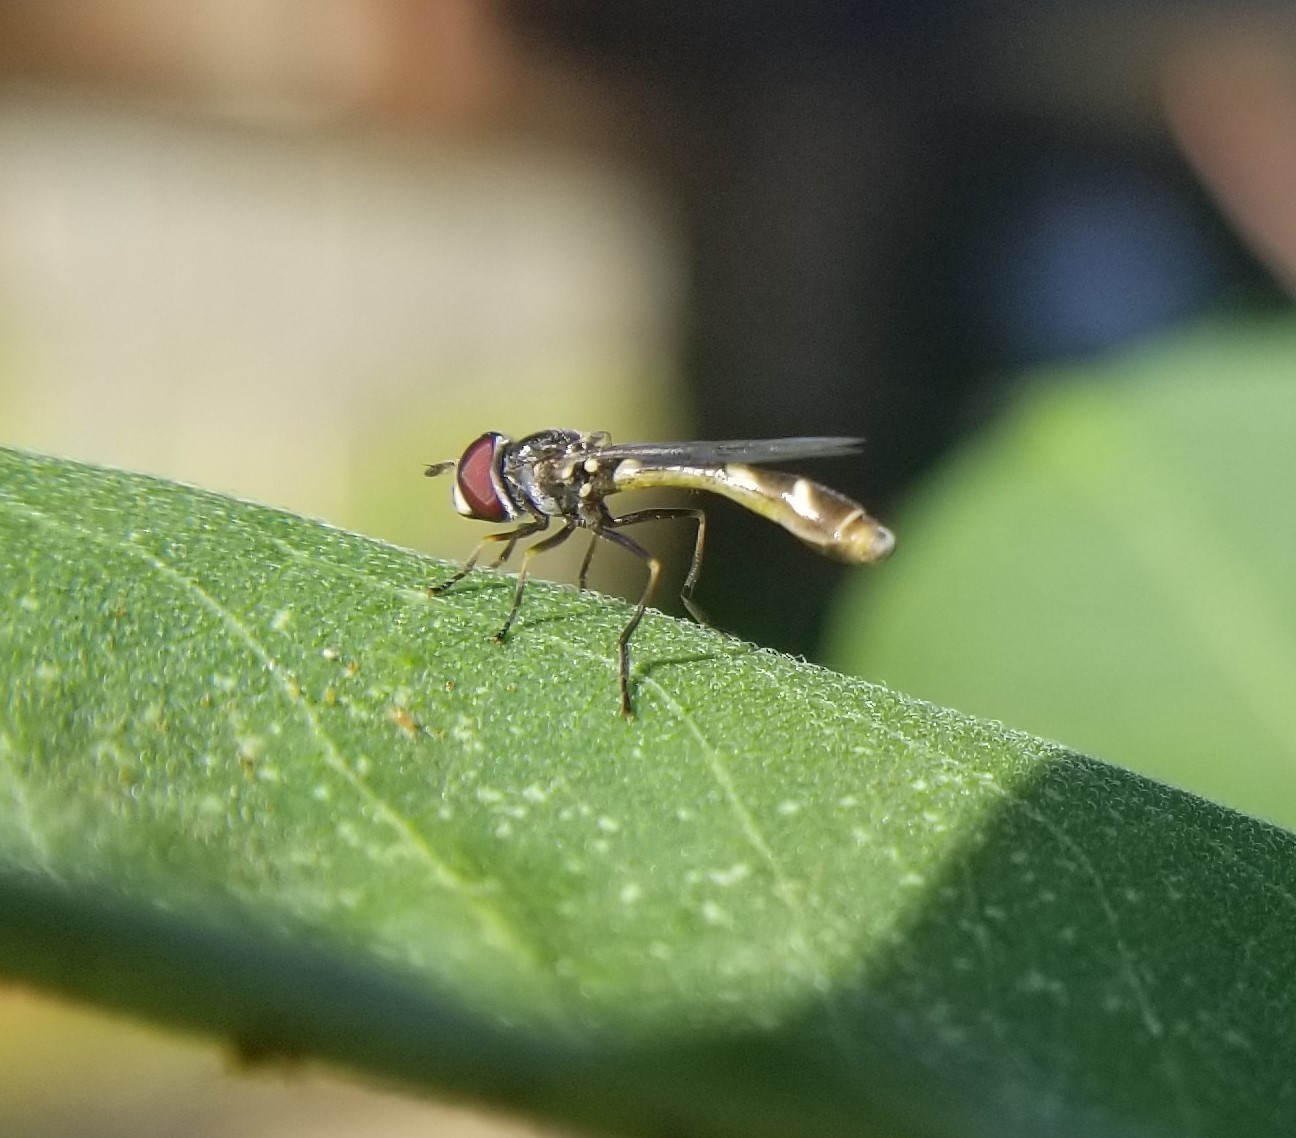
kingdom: Animalia
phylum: Arthropoda
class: Insecta
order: Diptera
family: Syrphidae
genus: Dioprosopa
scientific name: Dioprosopa clavatus
